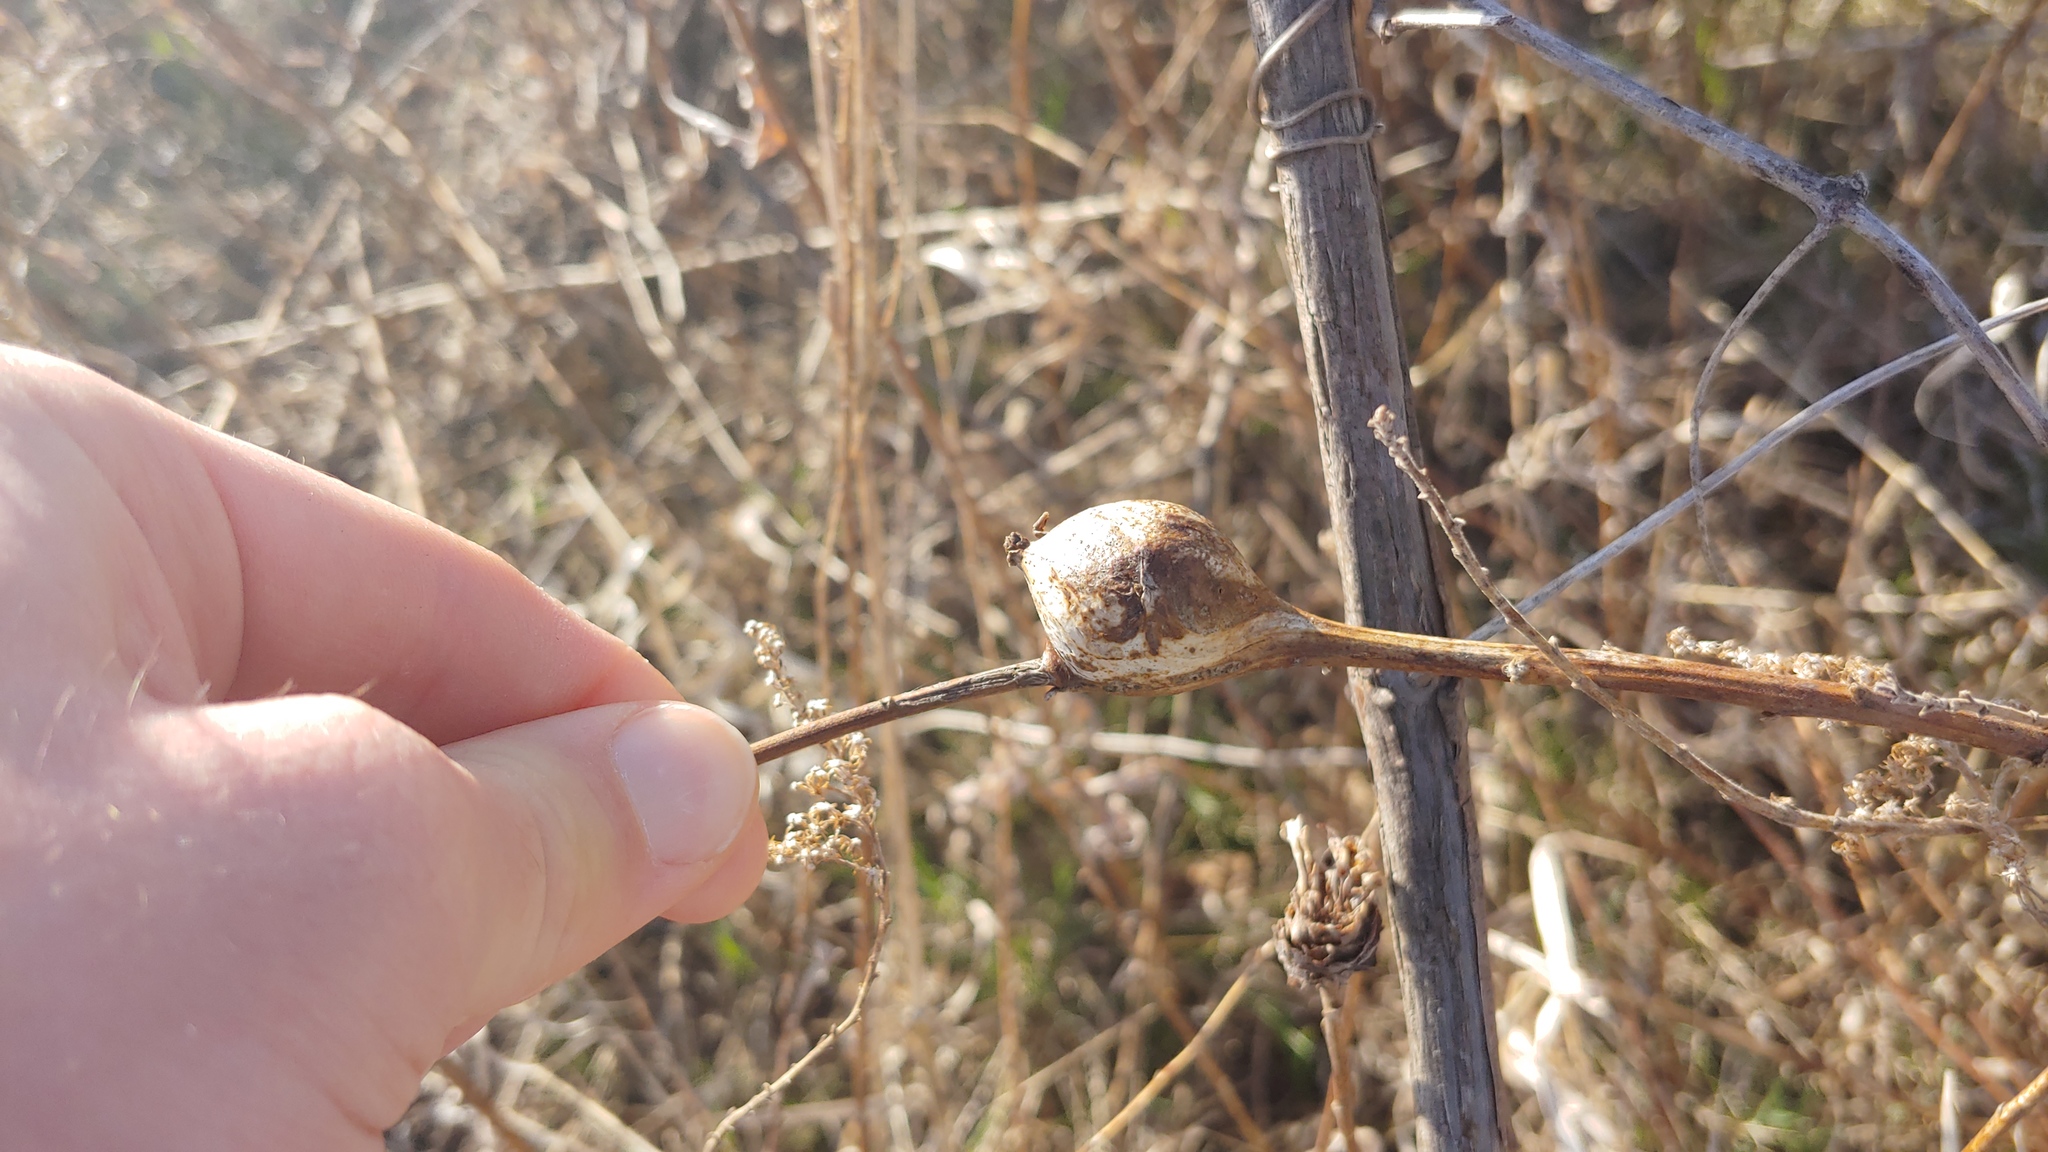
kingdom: Animalia
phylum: Arthropoda
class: Insecta
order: Diptera
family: Tephritidae
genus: Eurosta
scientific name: Eurosta solidaginis
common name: Goldenrod gall fly
